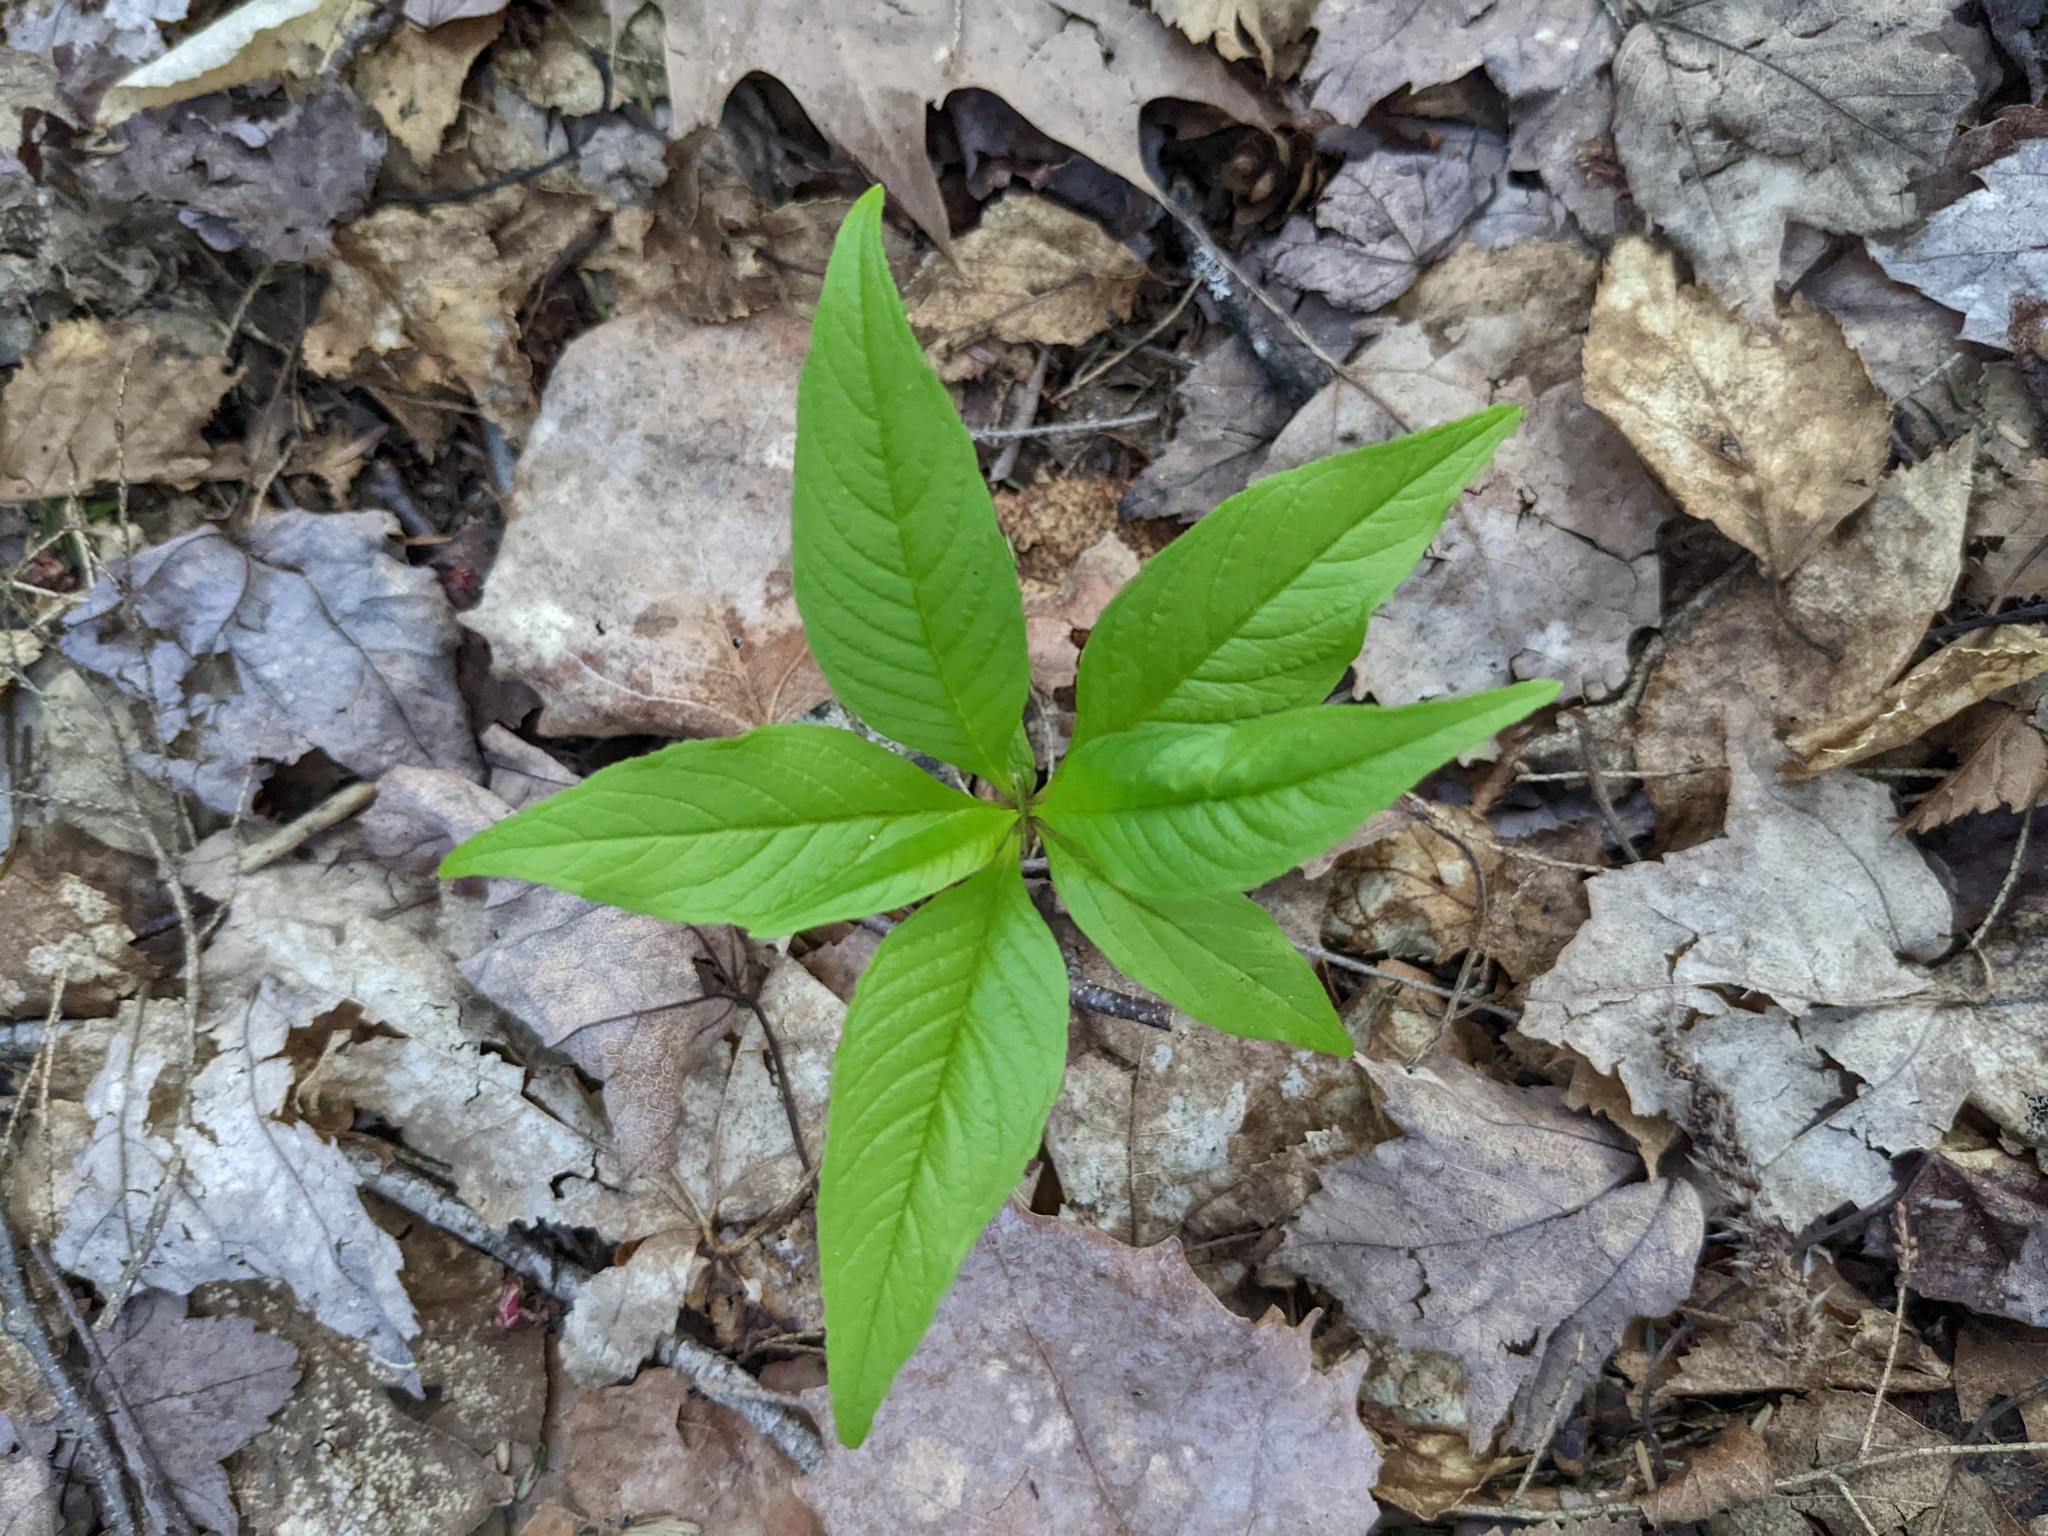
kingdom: Plantae
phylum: Tracheophyta
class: Magnoliopsida
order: Ericales
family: Primulaceae
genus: Lysimachia
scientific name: Lysimachia borealis
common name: American starflower
